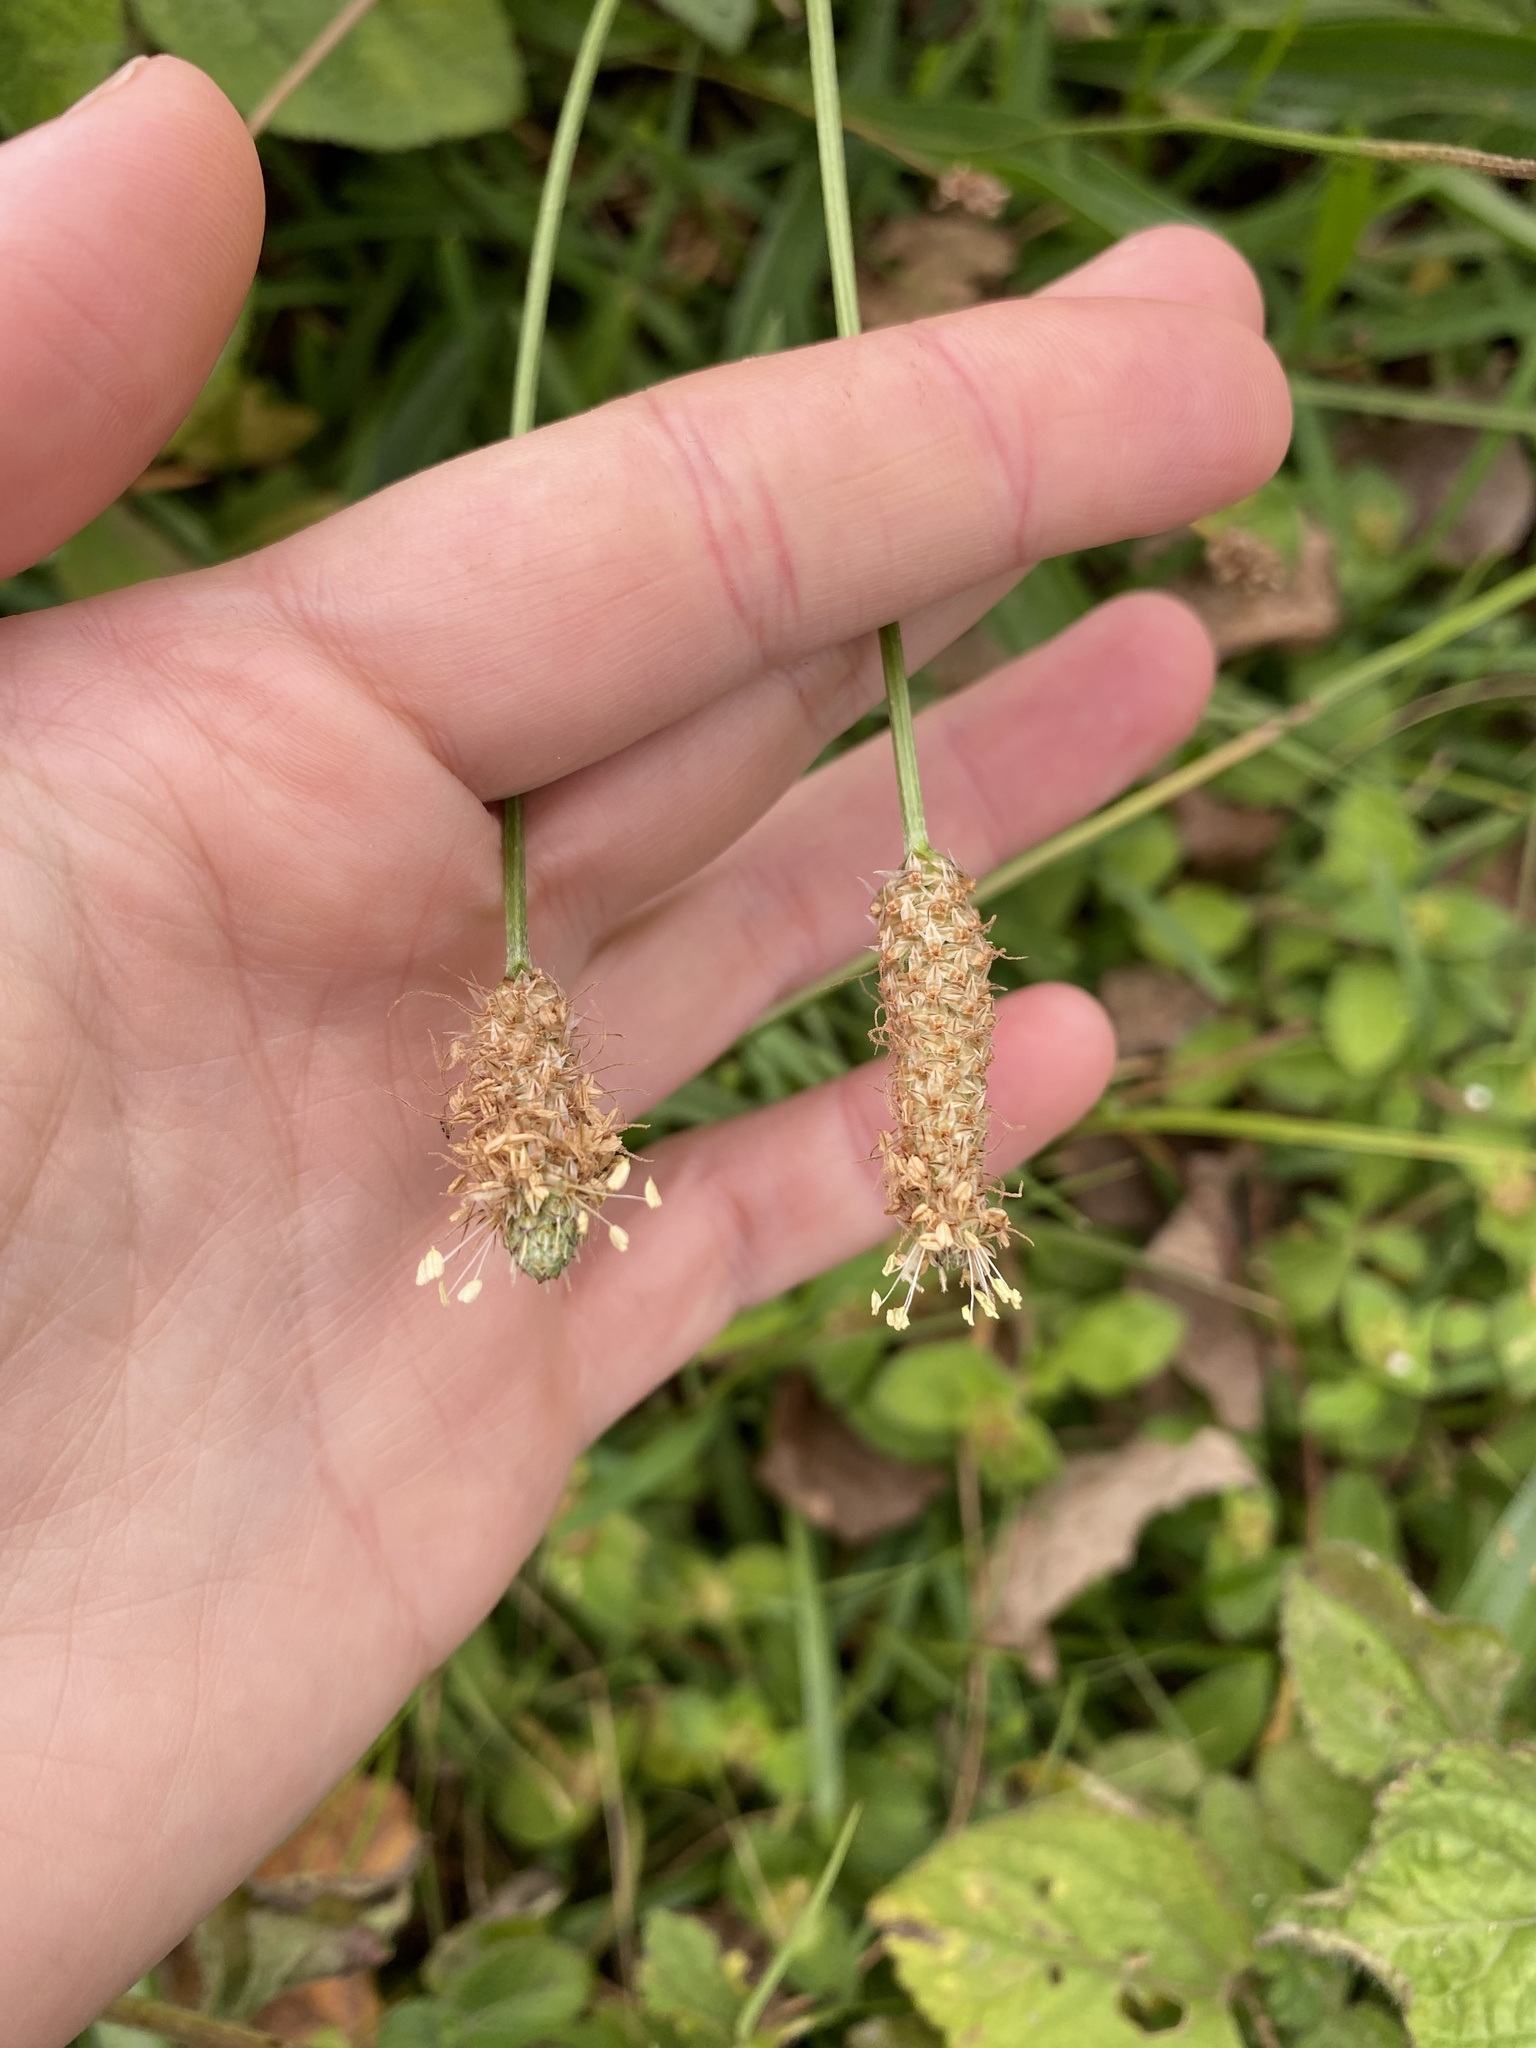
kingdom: Plantae
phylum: Tracheophyta
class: Magnoliopsida
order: Lamiales
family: Plantaginaceae
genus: Plantago
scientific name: Plantago lanceolata
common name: Ribwort plantain
